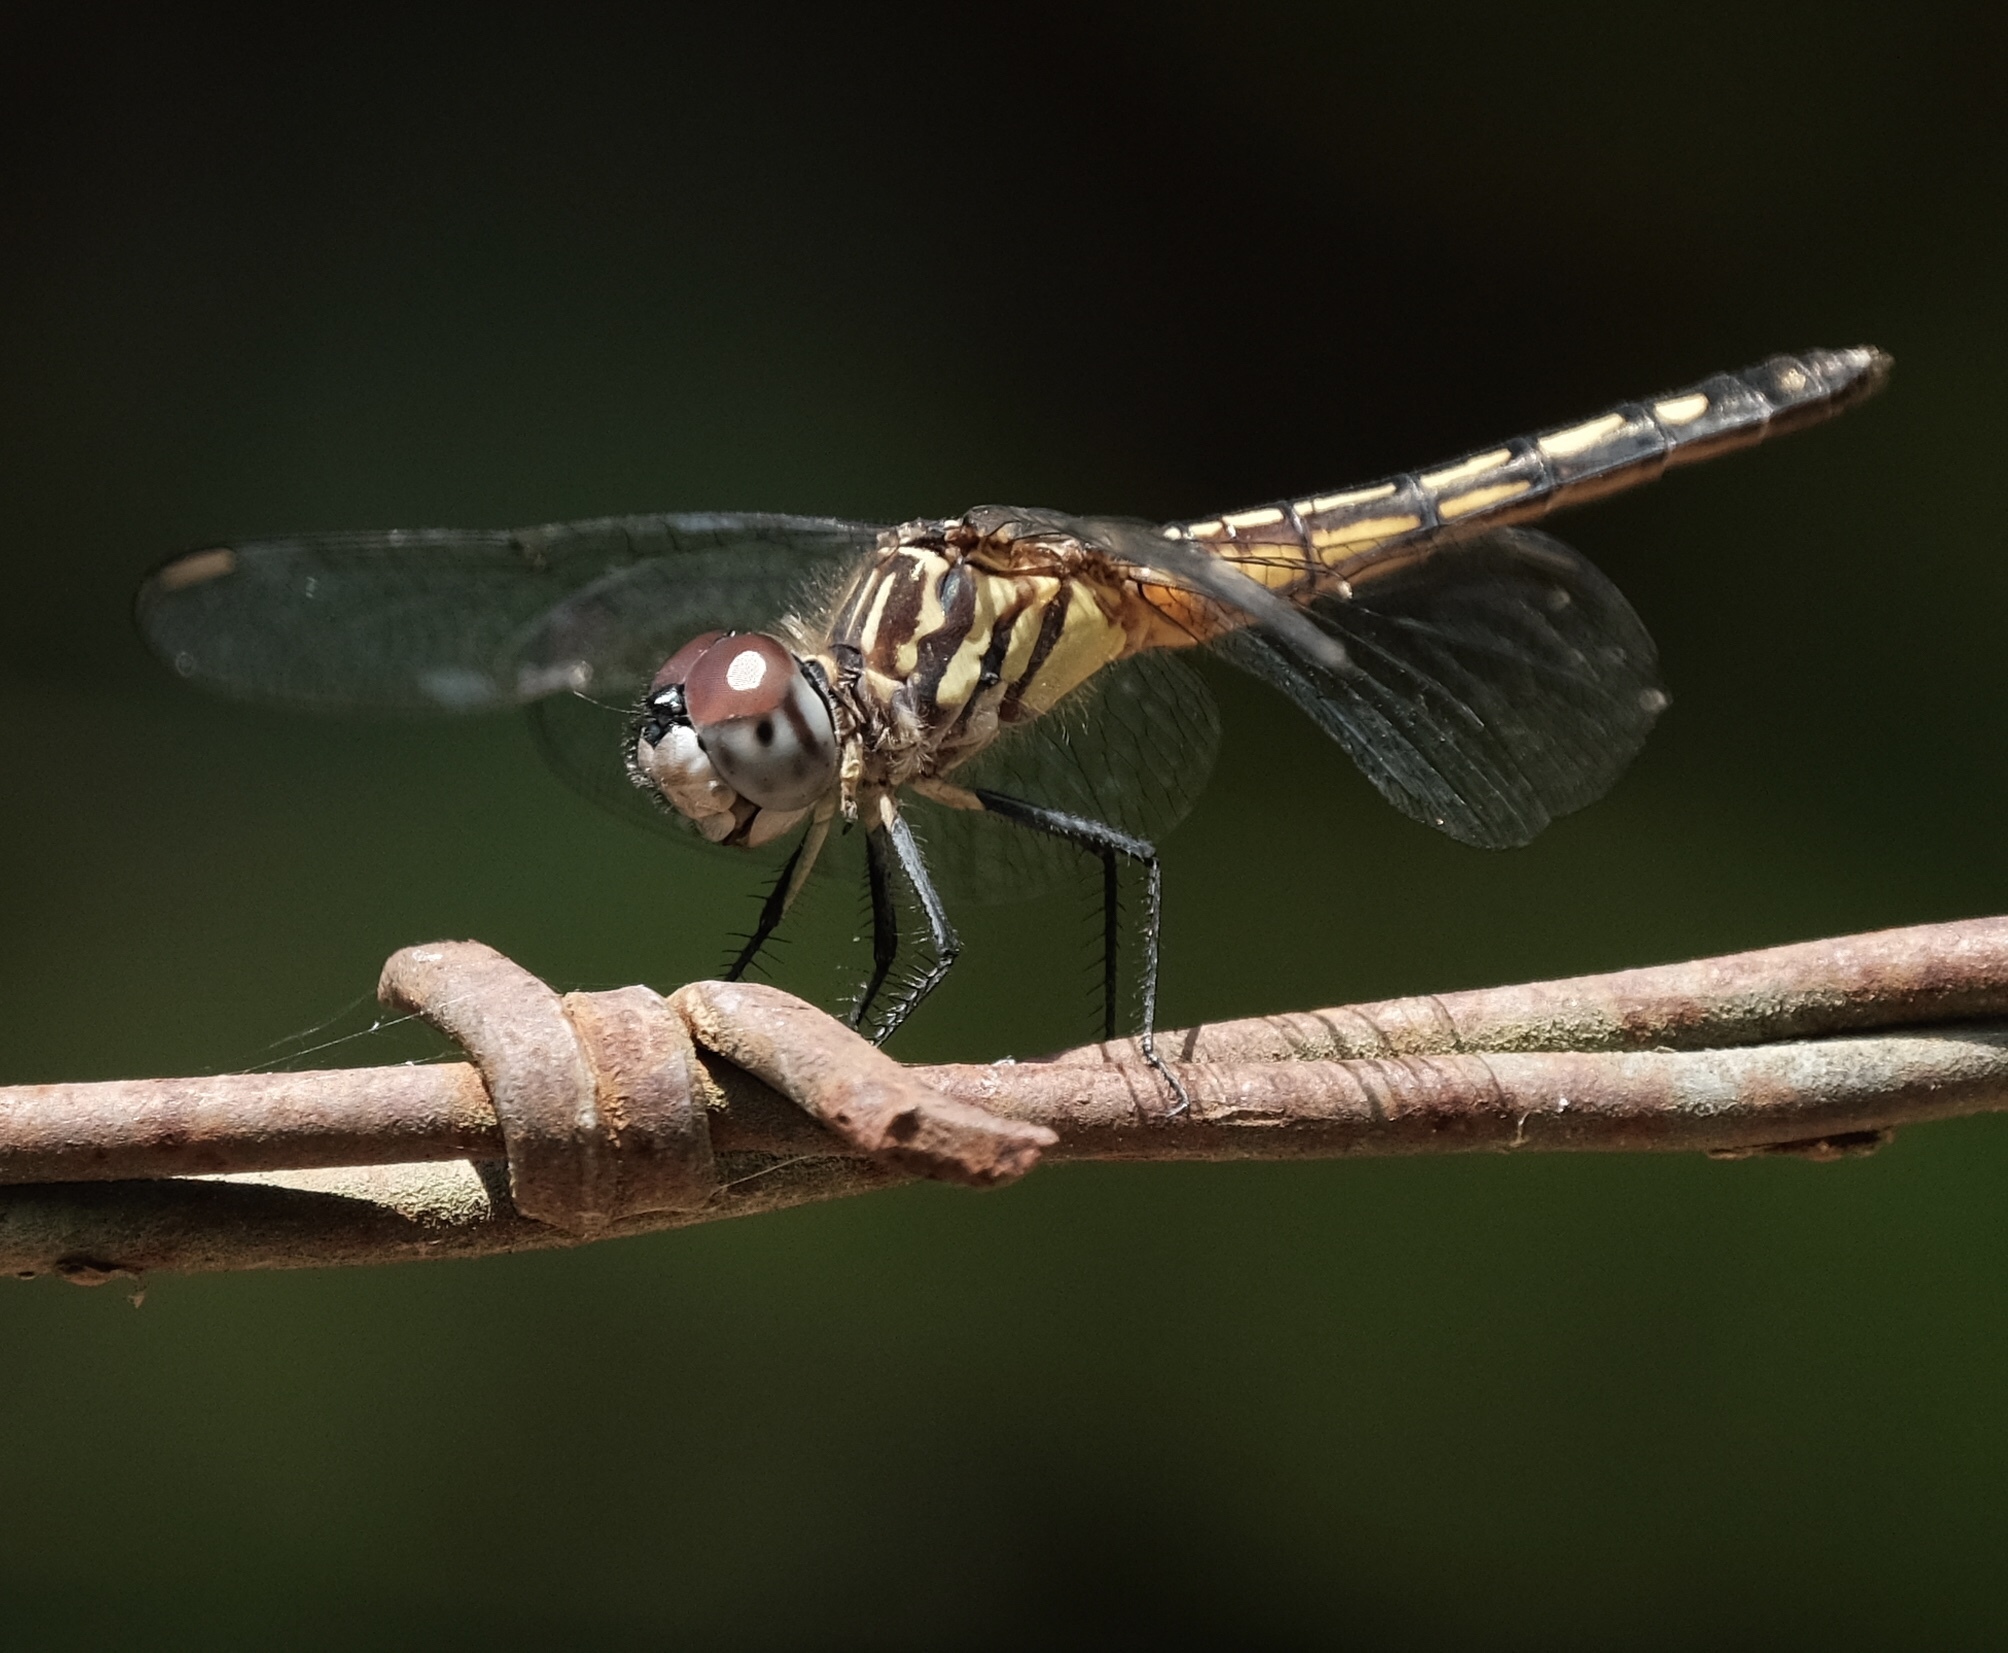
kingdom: Animalia
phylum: Arthropoda
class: Insecta
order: Odonata
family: Libellulidae
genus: Pachydiplax
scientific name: Pachydiplax longipennis
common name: Blue dasher
